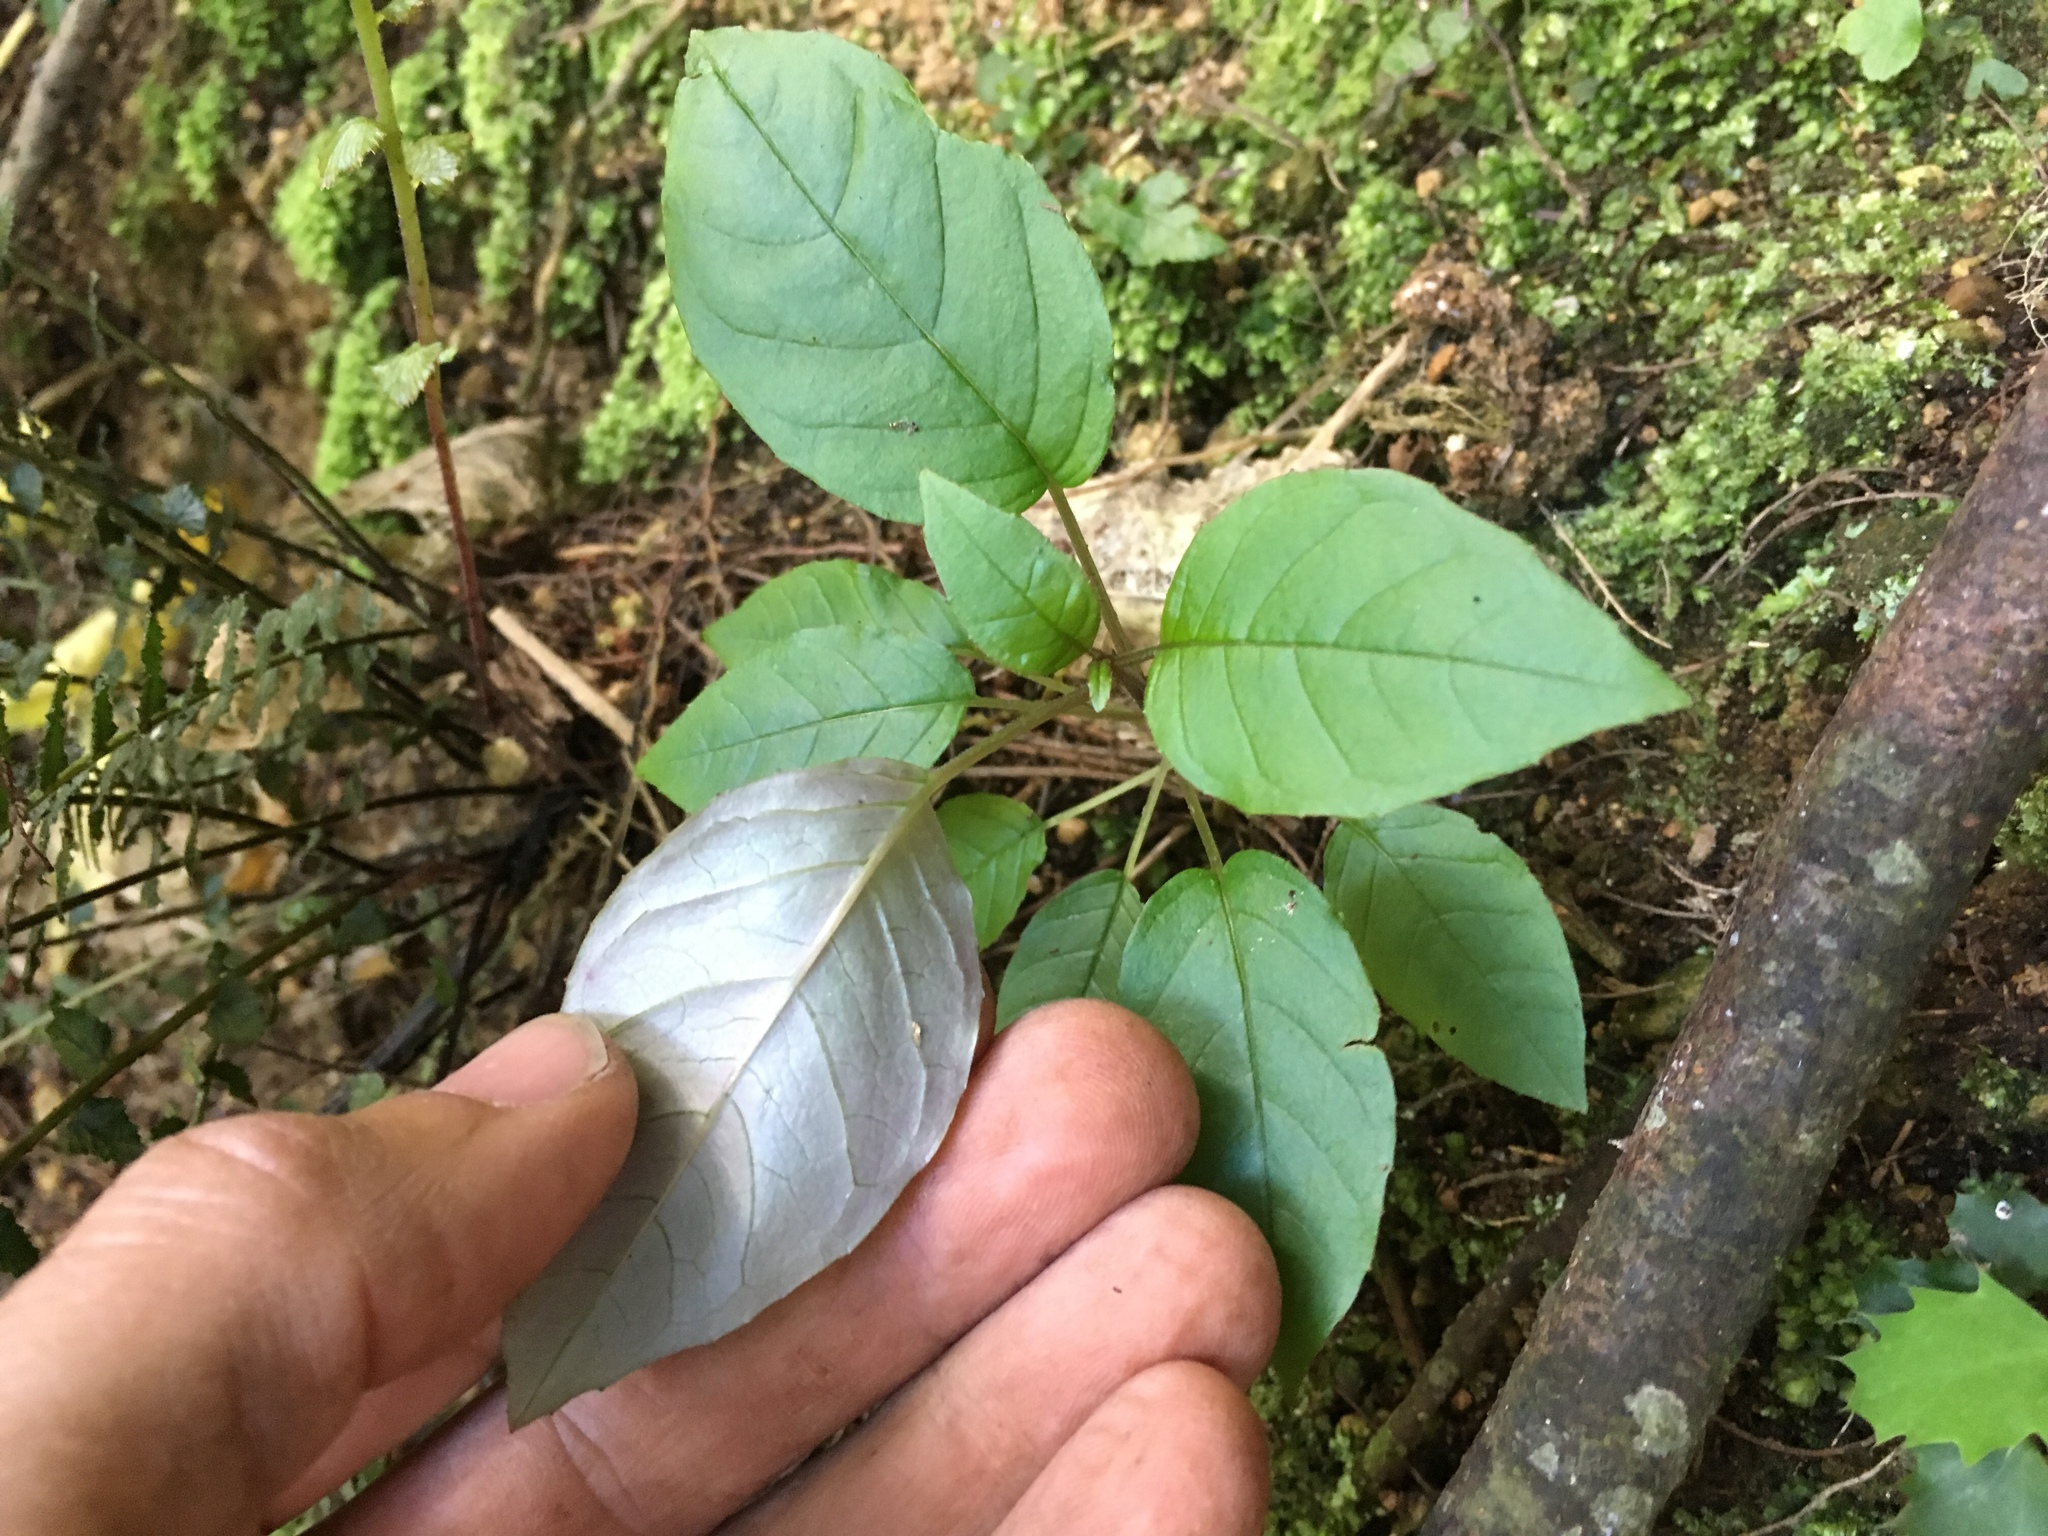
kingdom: Plantae
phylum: Tracheophyta
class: Magnoliopsida
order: Myrtales
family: Onagraceae
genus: Fuchsia
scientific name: Fuchsia excorticata
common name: Tree fuchsia
